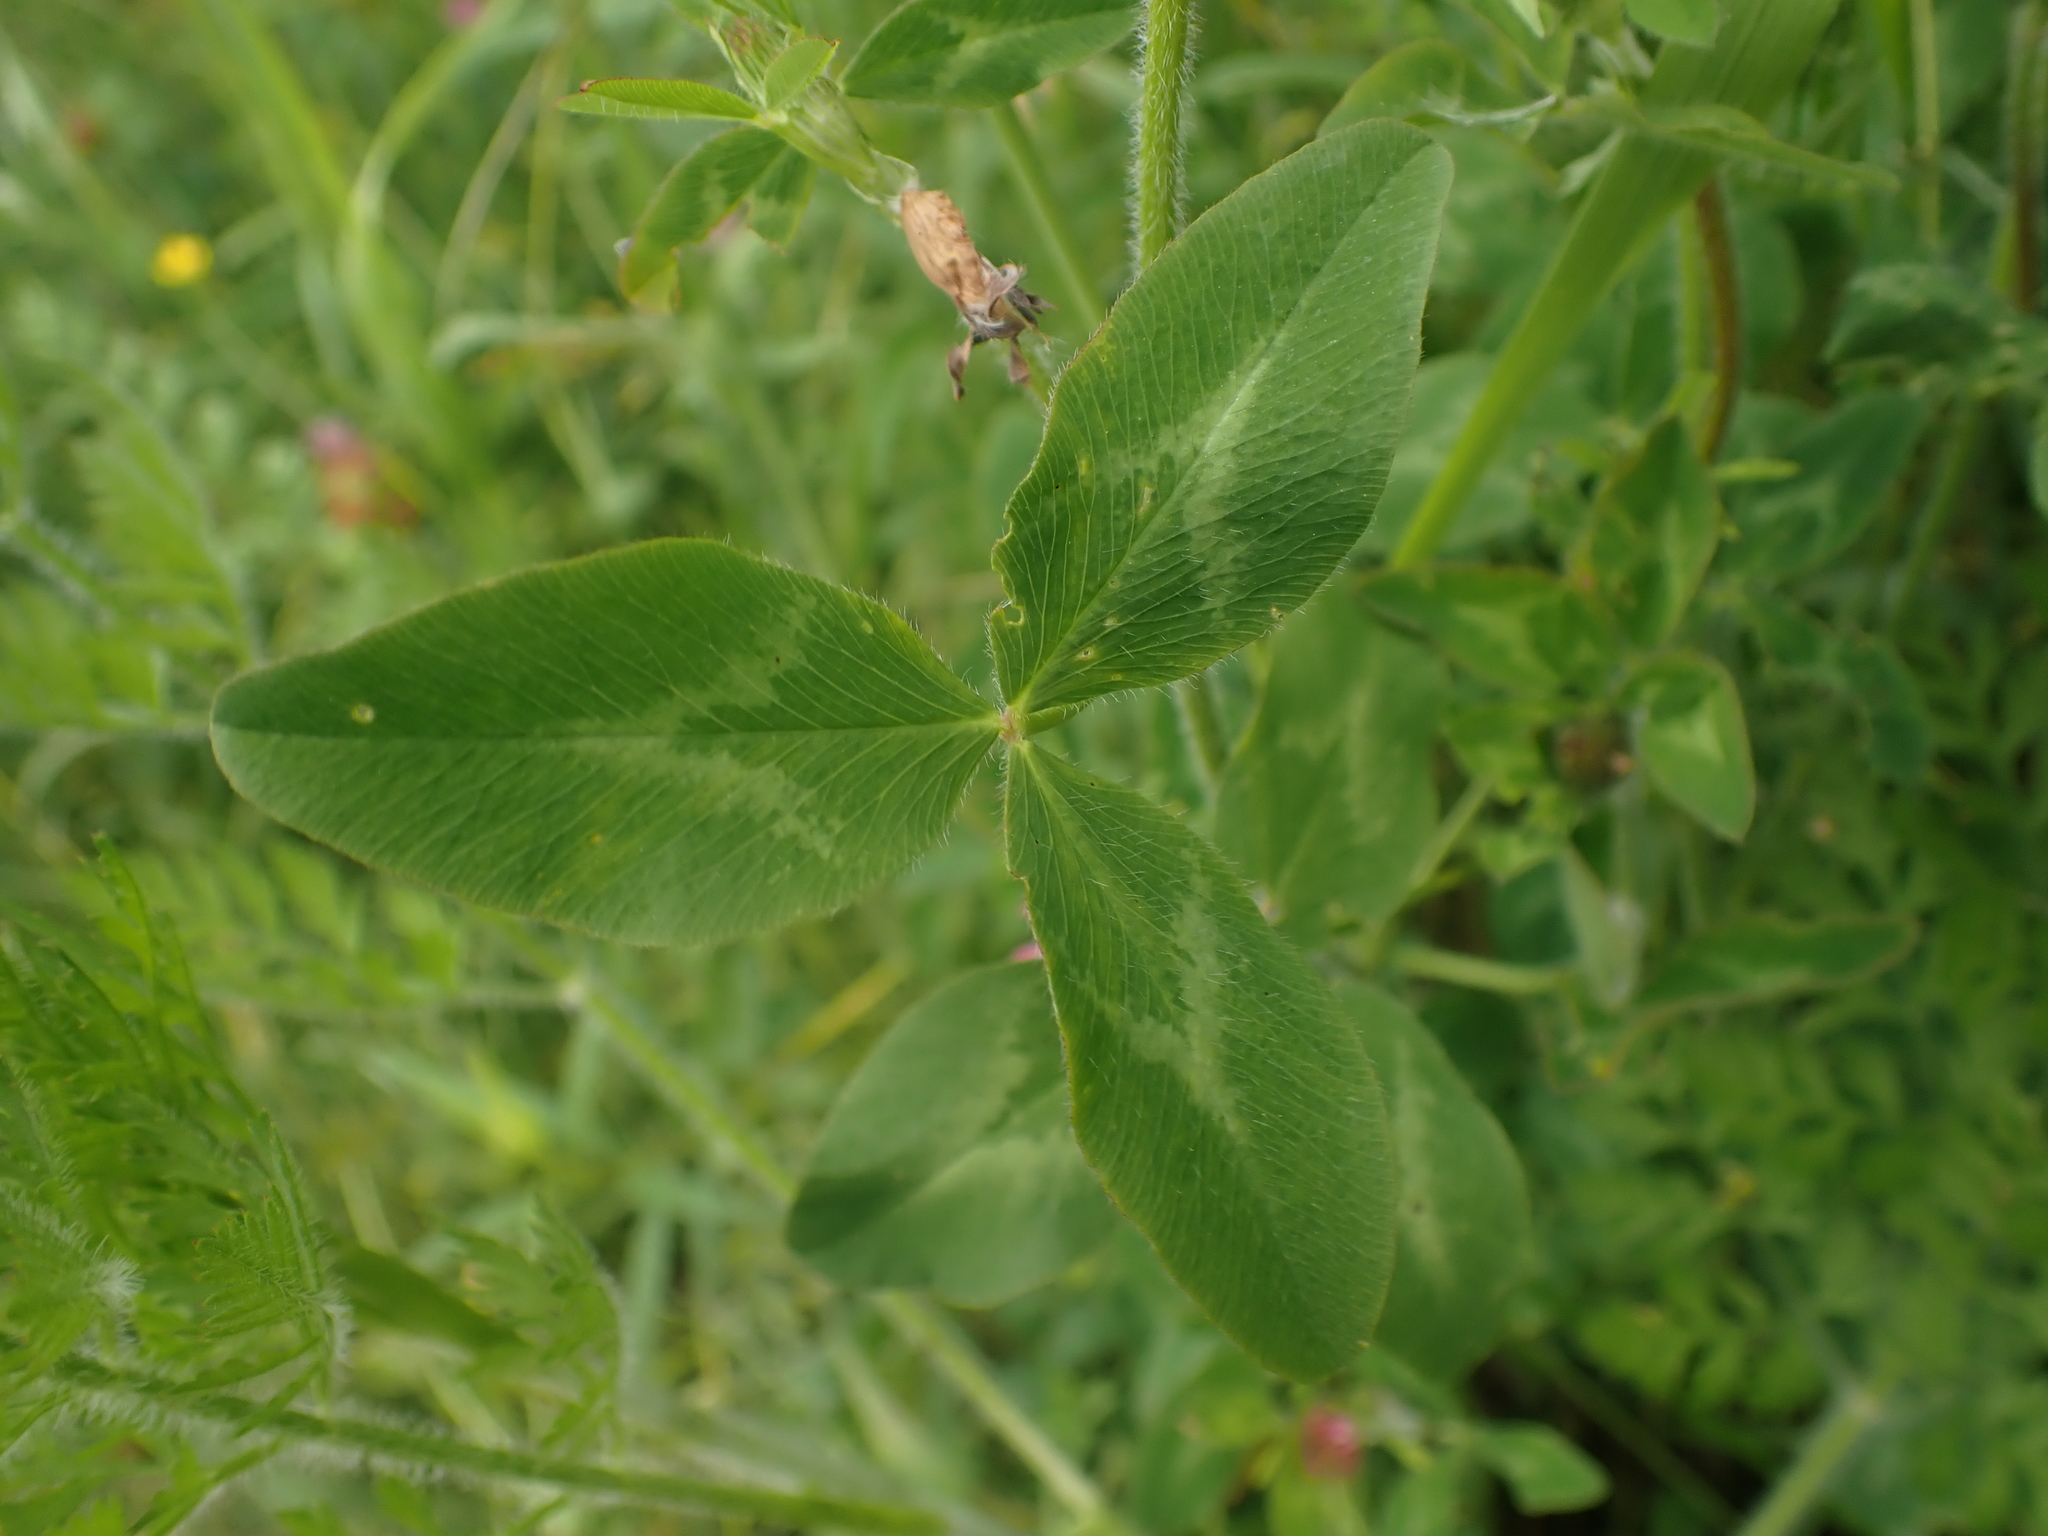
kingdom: Plantae
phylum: Tracheophyta
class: Magnoliopsida
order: Fabales
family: Fabaceae
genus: Trifolium
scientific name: Trifolium pratense
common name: Red clover
